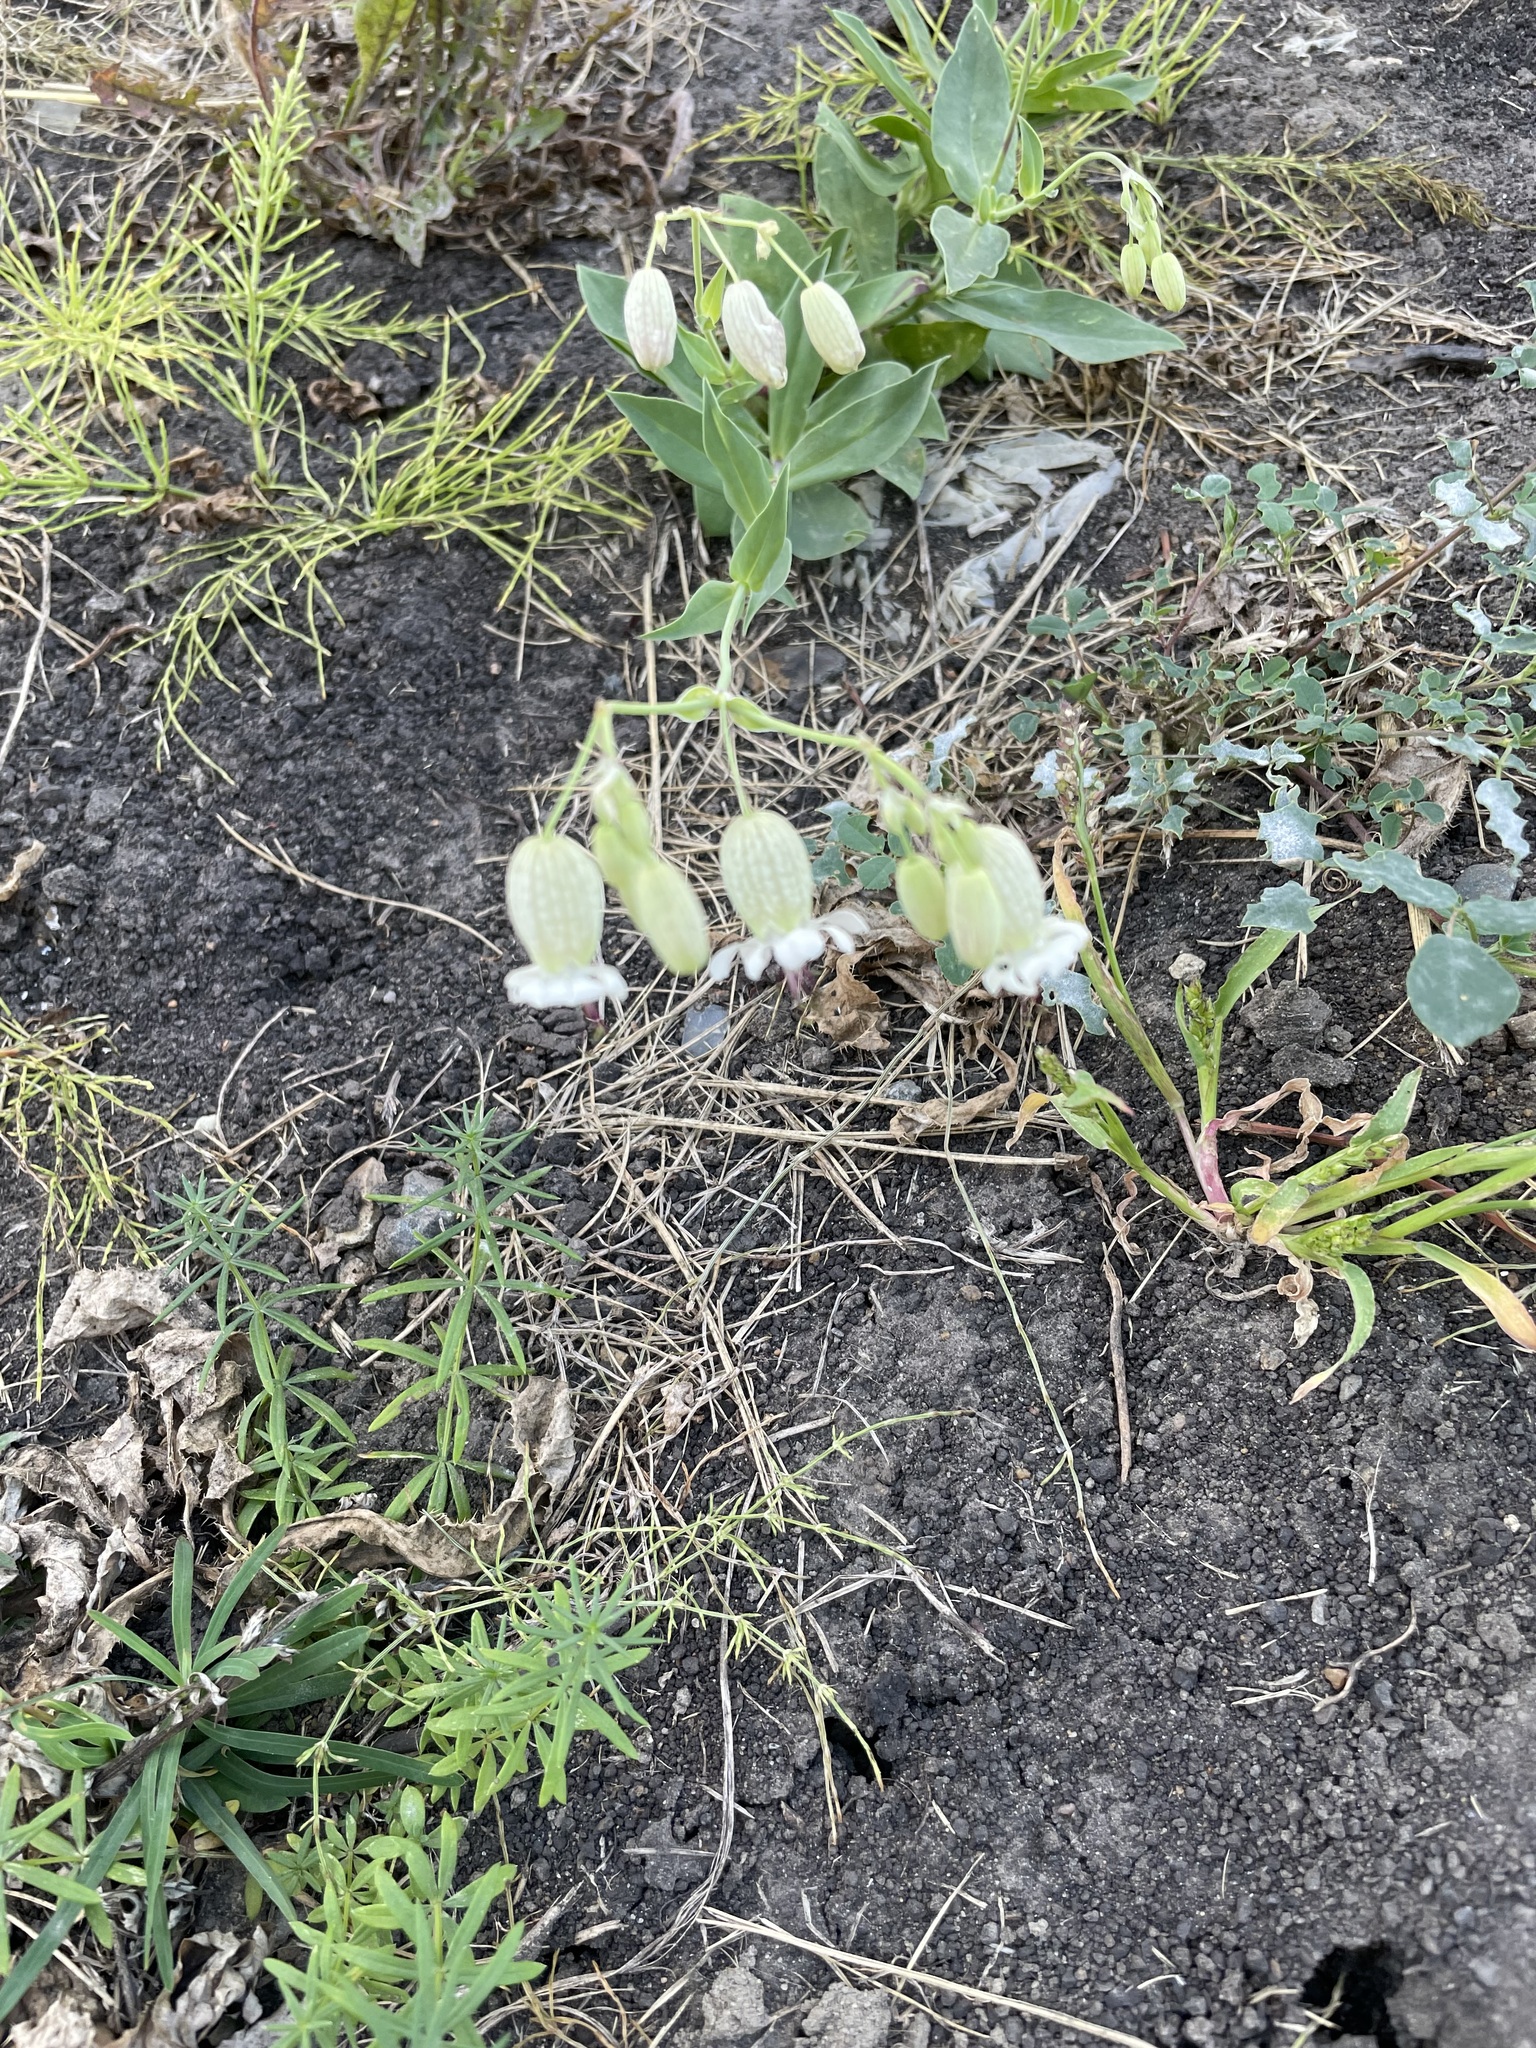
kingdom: Plantae
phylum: Tracheophyta
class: Magnoliopsida
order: Caryophyllales
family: Caryophyllaceae
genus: Silene
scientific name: Silene vulgaris
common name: Bladder campion
